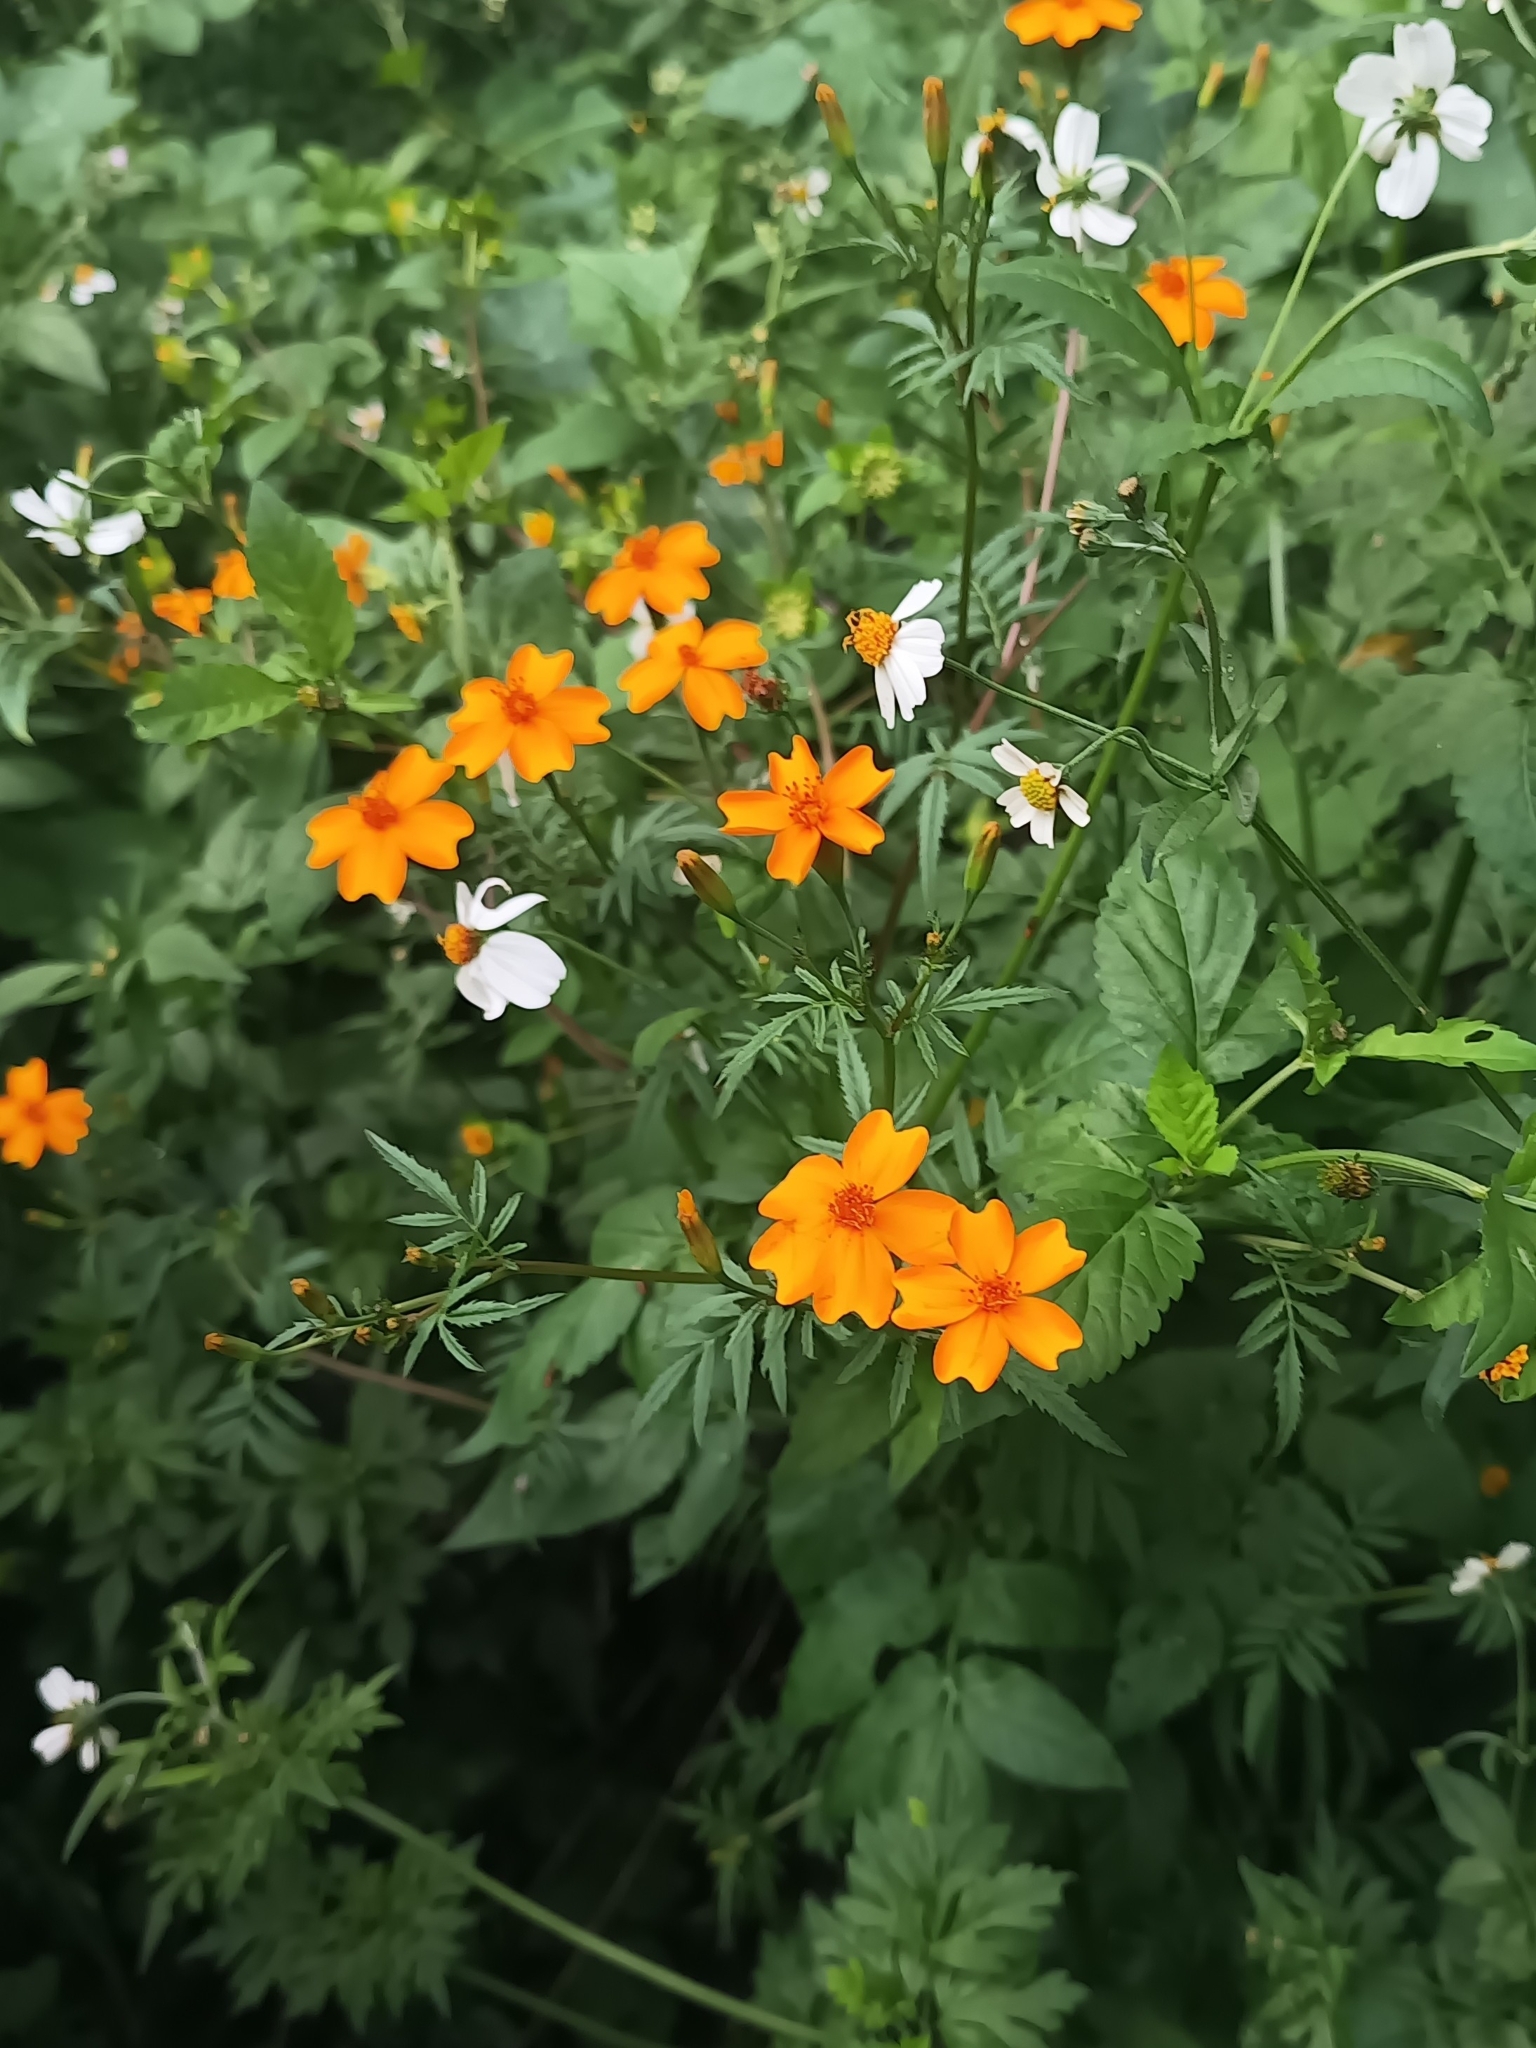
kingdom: Plantae
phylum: Tracheophyta
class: Magnoliopsida
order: Asterales
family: Asteraceae
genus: Tagetes
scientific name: Tagetes tenuifolia
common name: Signet marigold
